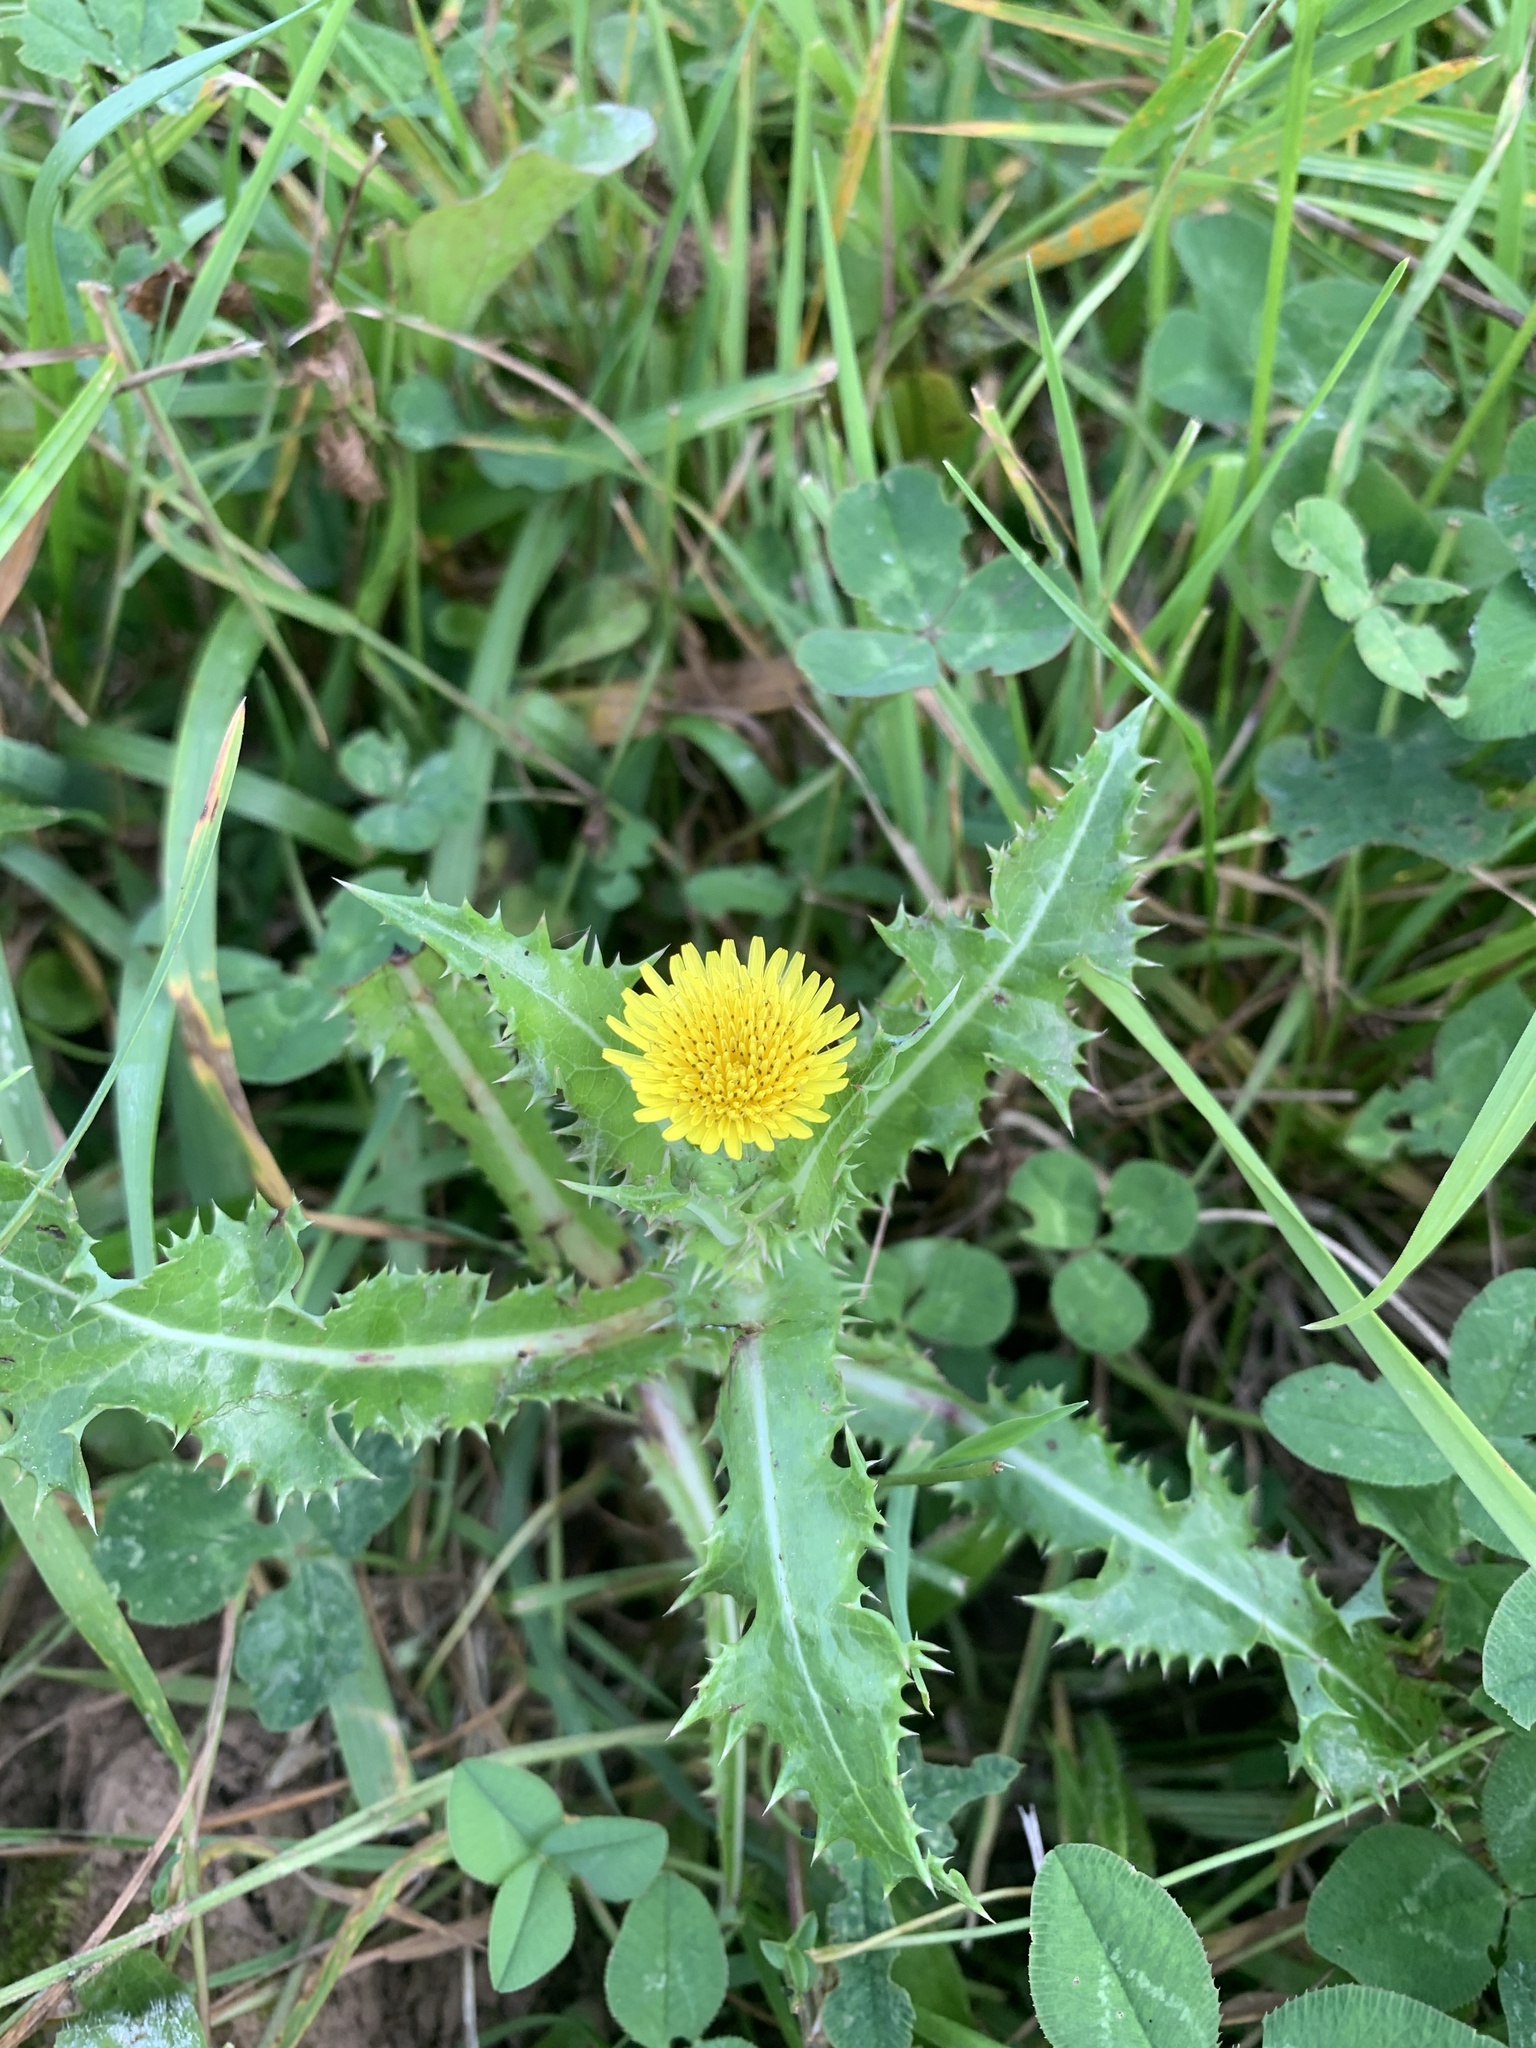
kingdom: Plantae
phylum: Tracheophyta
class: Magnoliopsida
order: Asterales
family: Asteraceae
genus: Sonchus
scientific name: Sonchus asper
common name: Prickly sow-thistle
